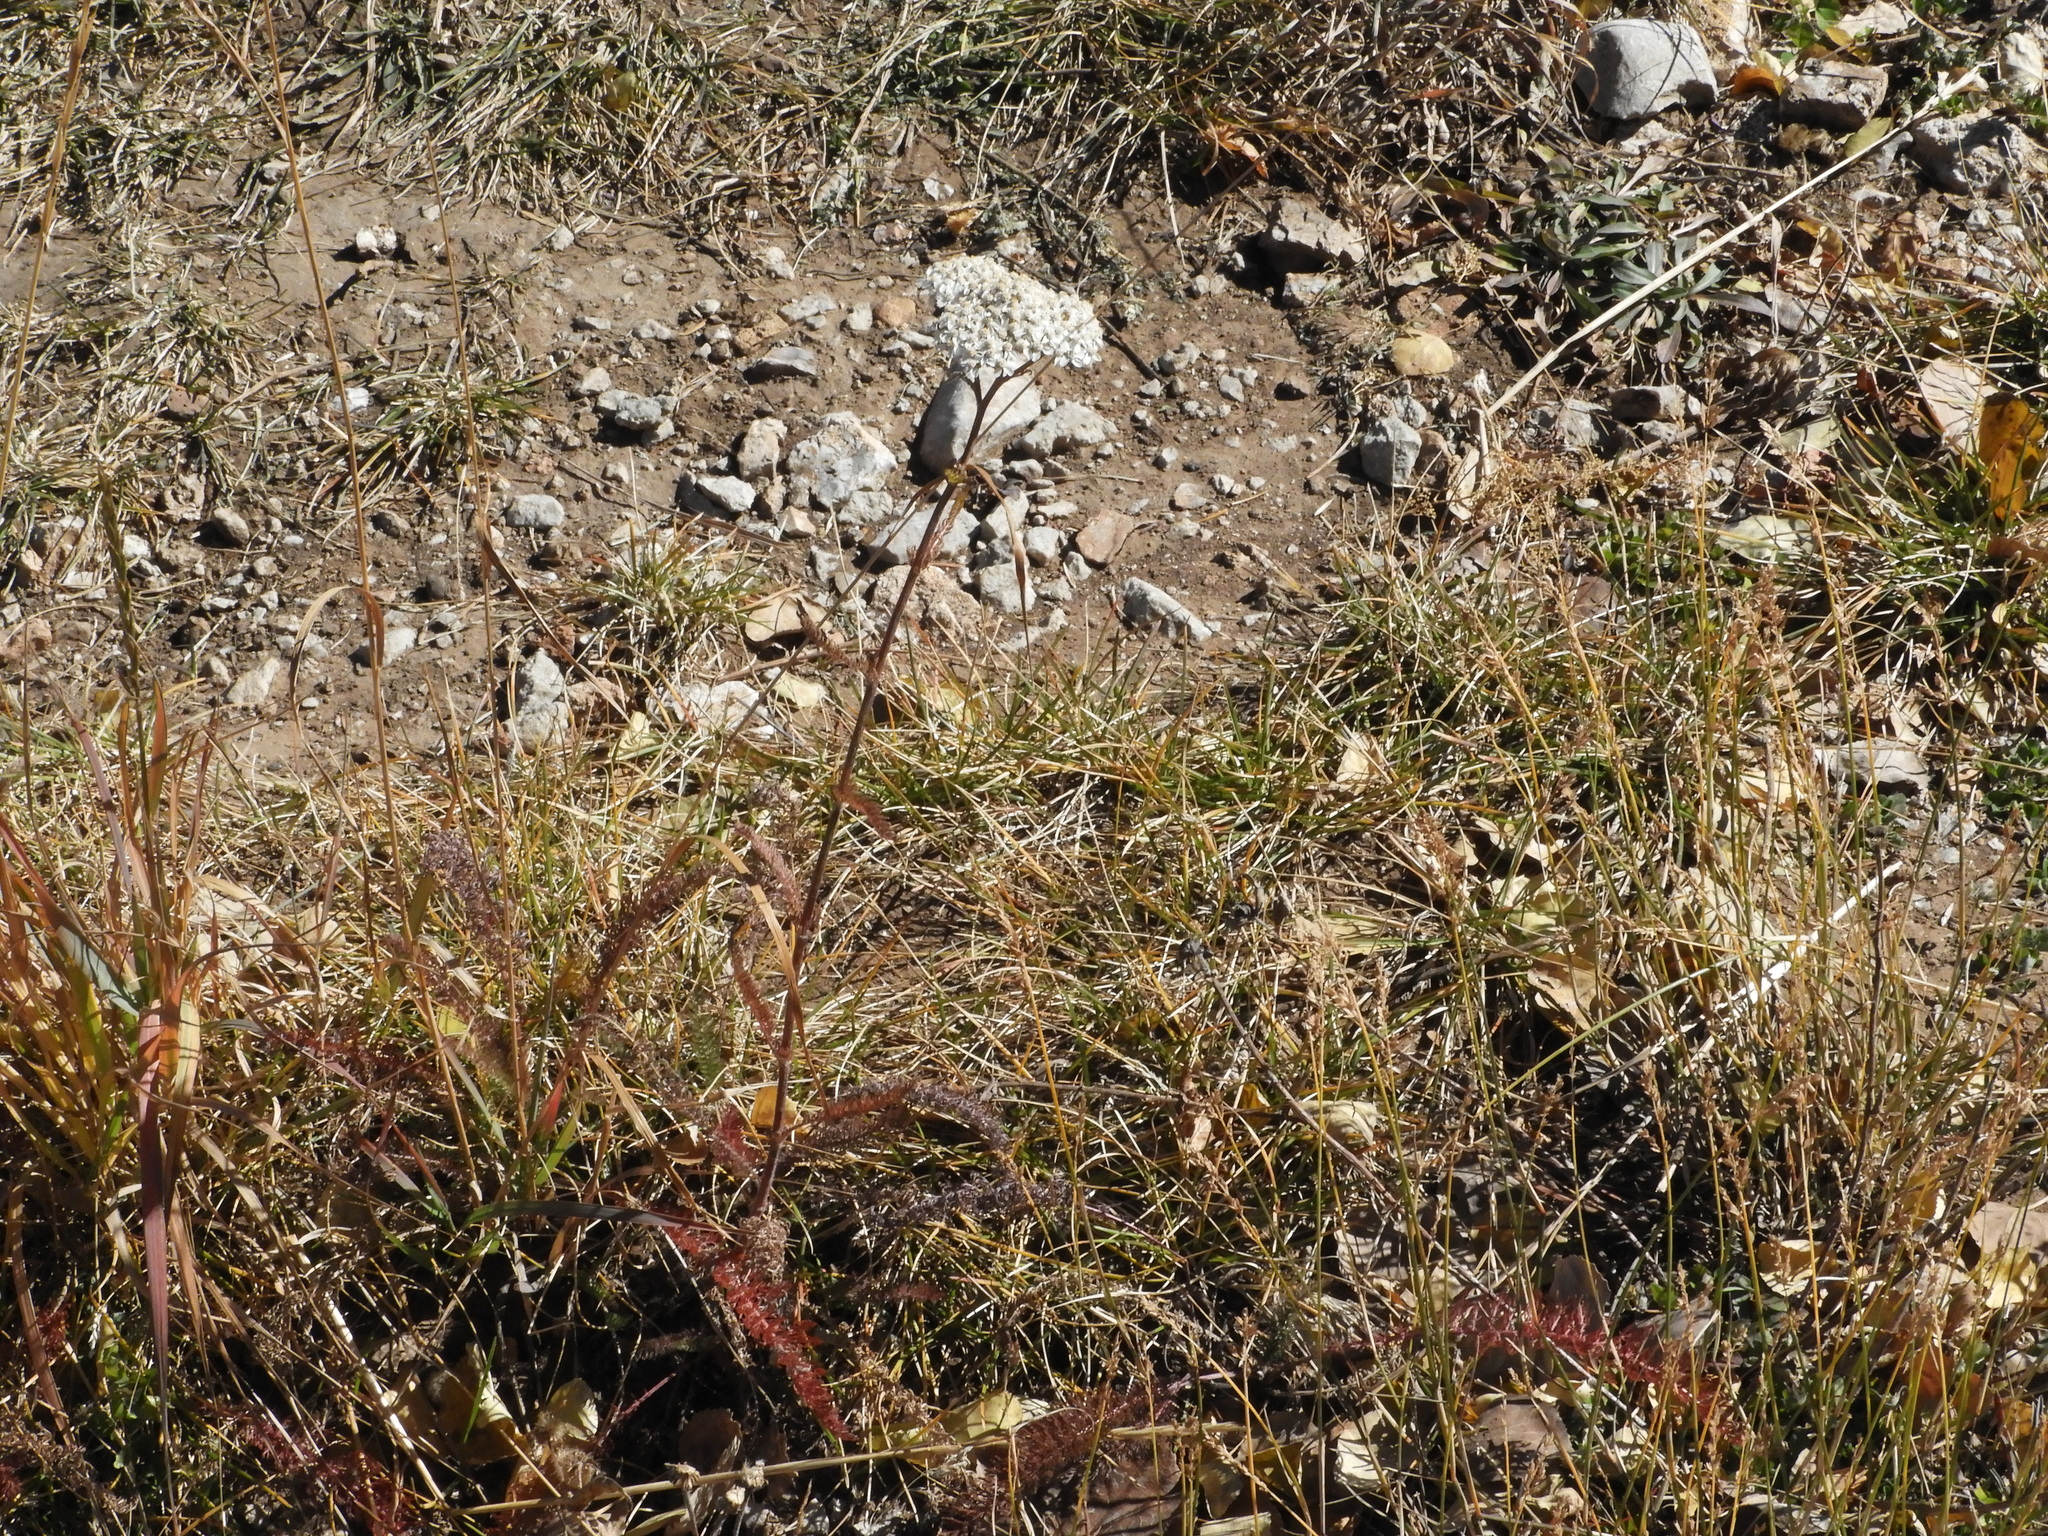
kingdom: Plantae
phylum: Tracheophyta
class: Magnoliopsida
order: Asterales
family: Asteraceae
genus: Achillea
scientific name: Achillea millefolium
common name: Yarrow
